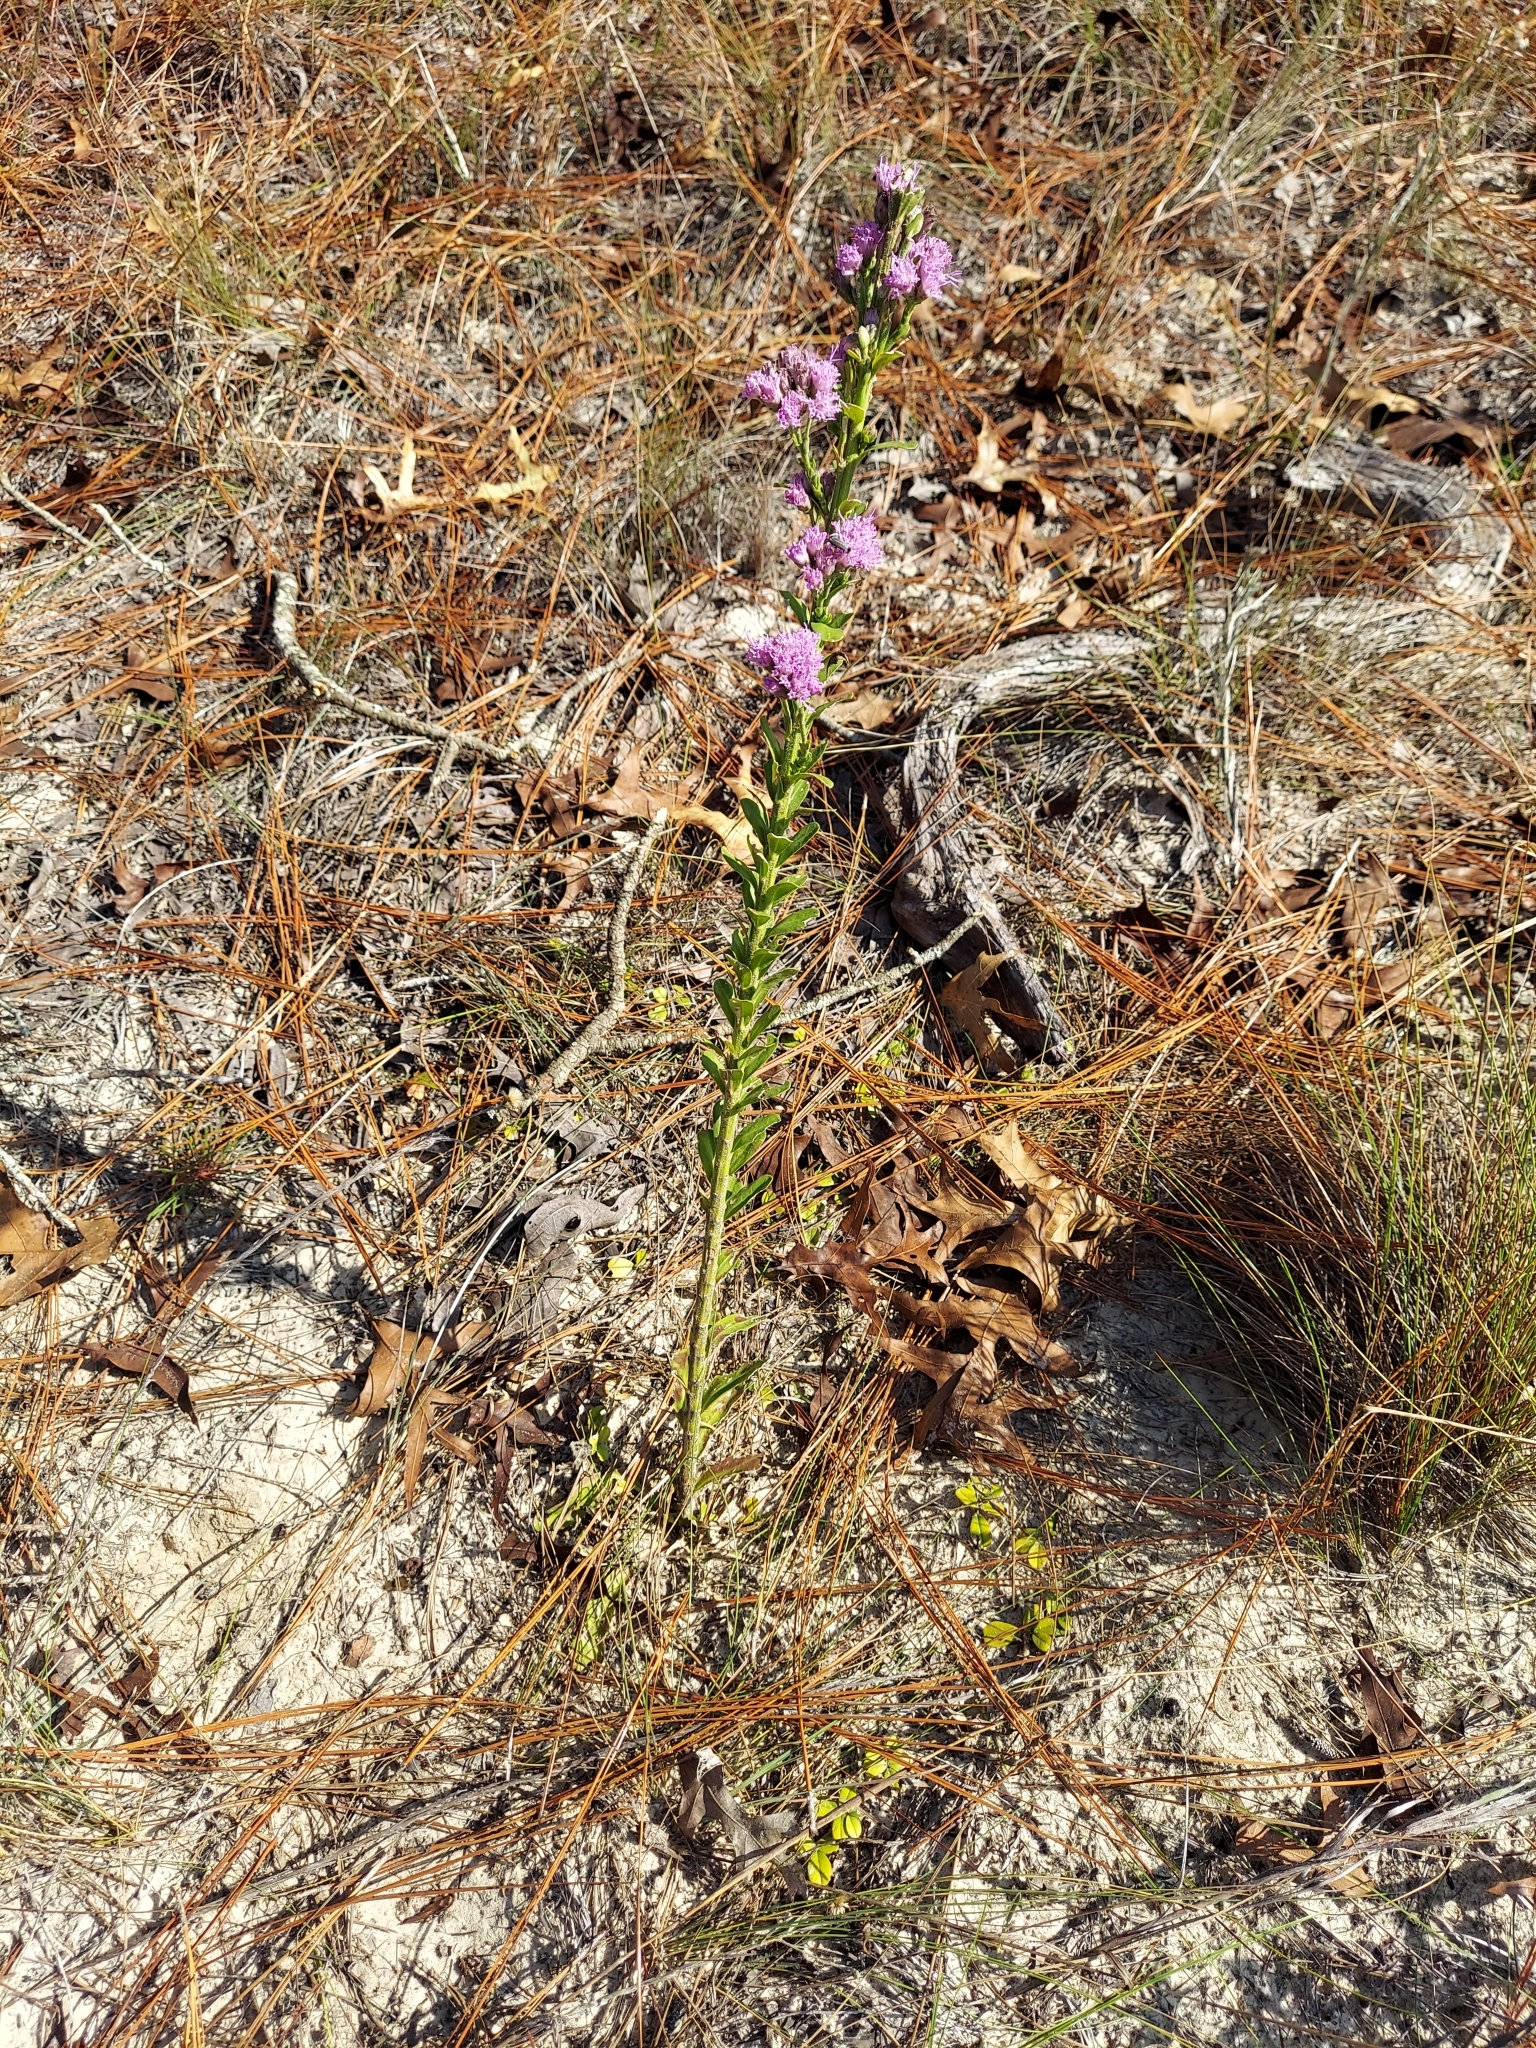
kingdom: Plantae
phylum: Tracheophyta
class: Magnoliopsida
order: Asterales
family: Asteraceae
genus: Carphephorus
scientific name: Carphephorus corymbosus
